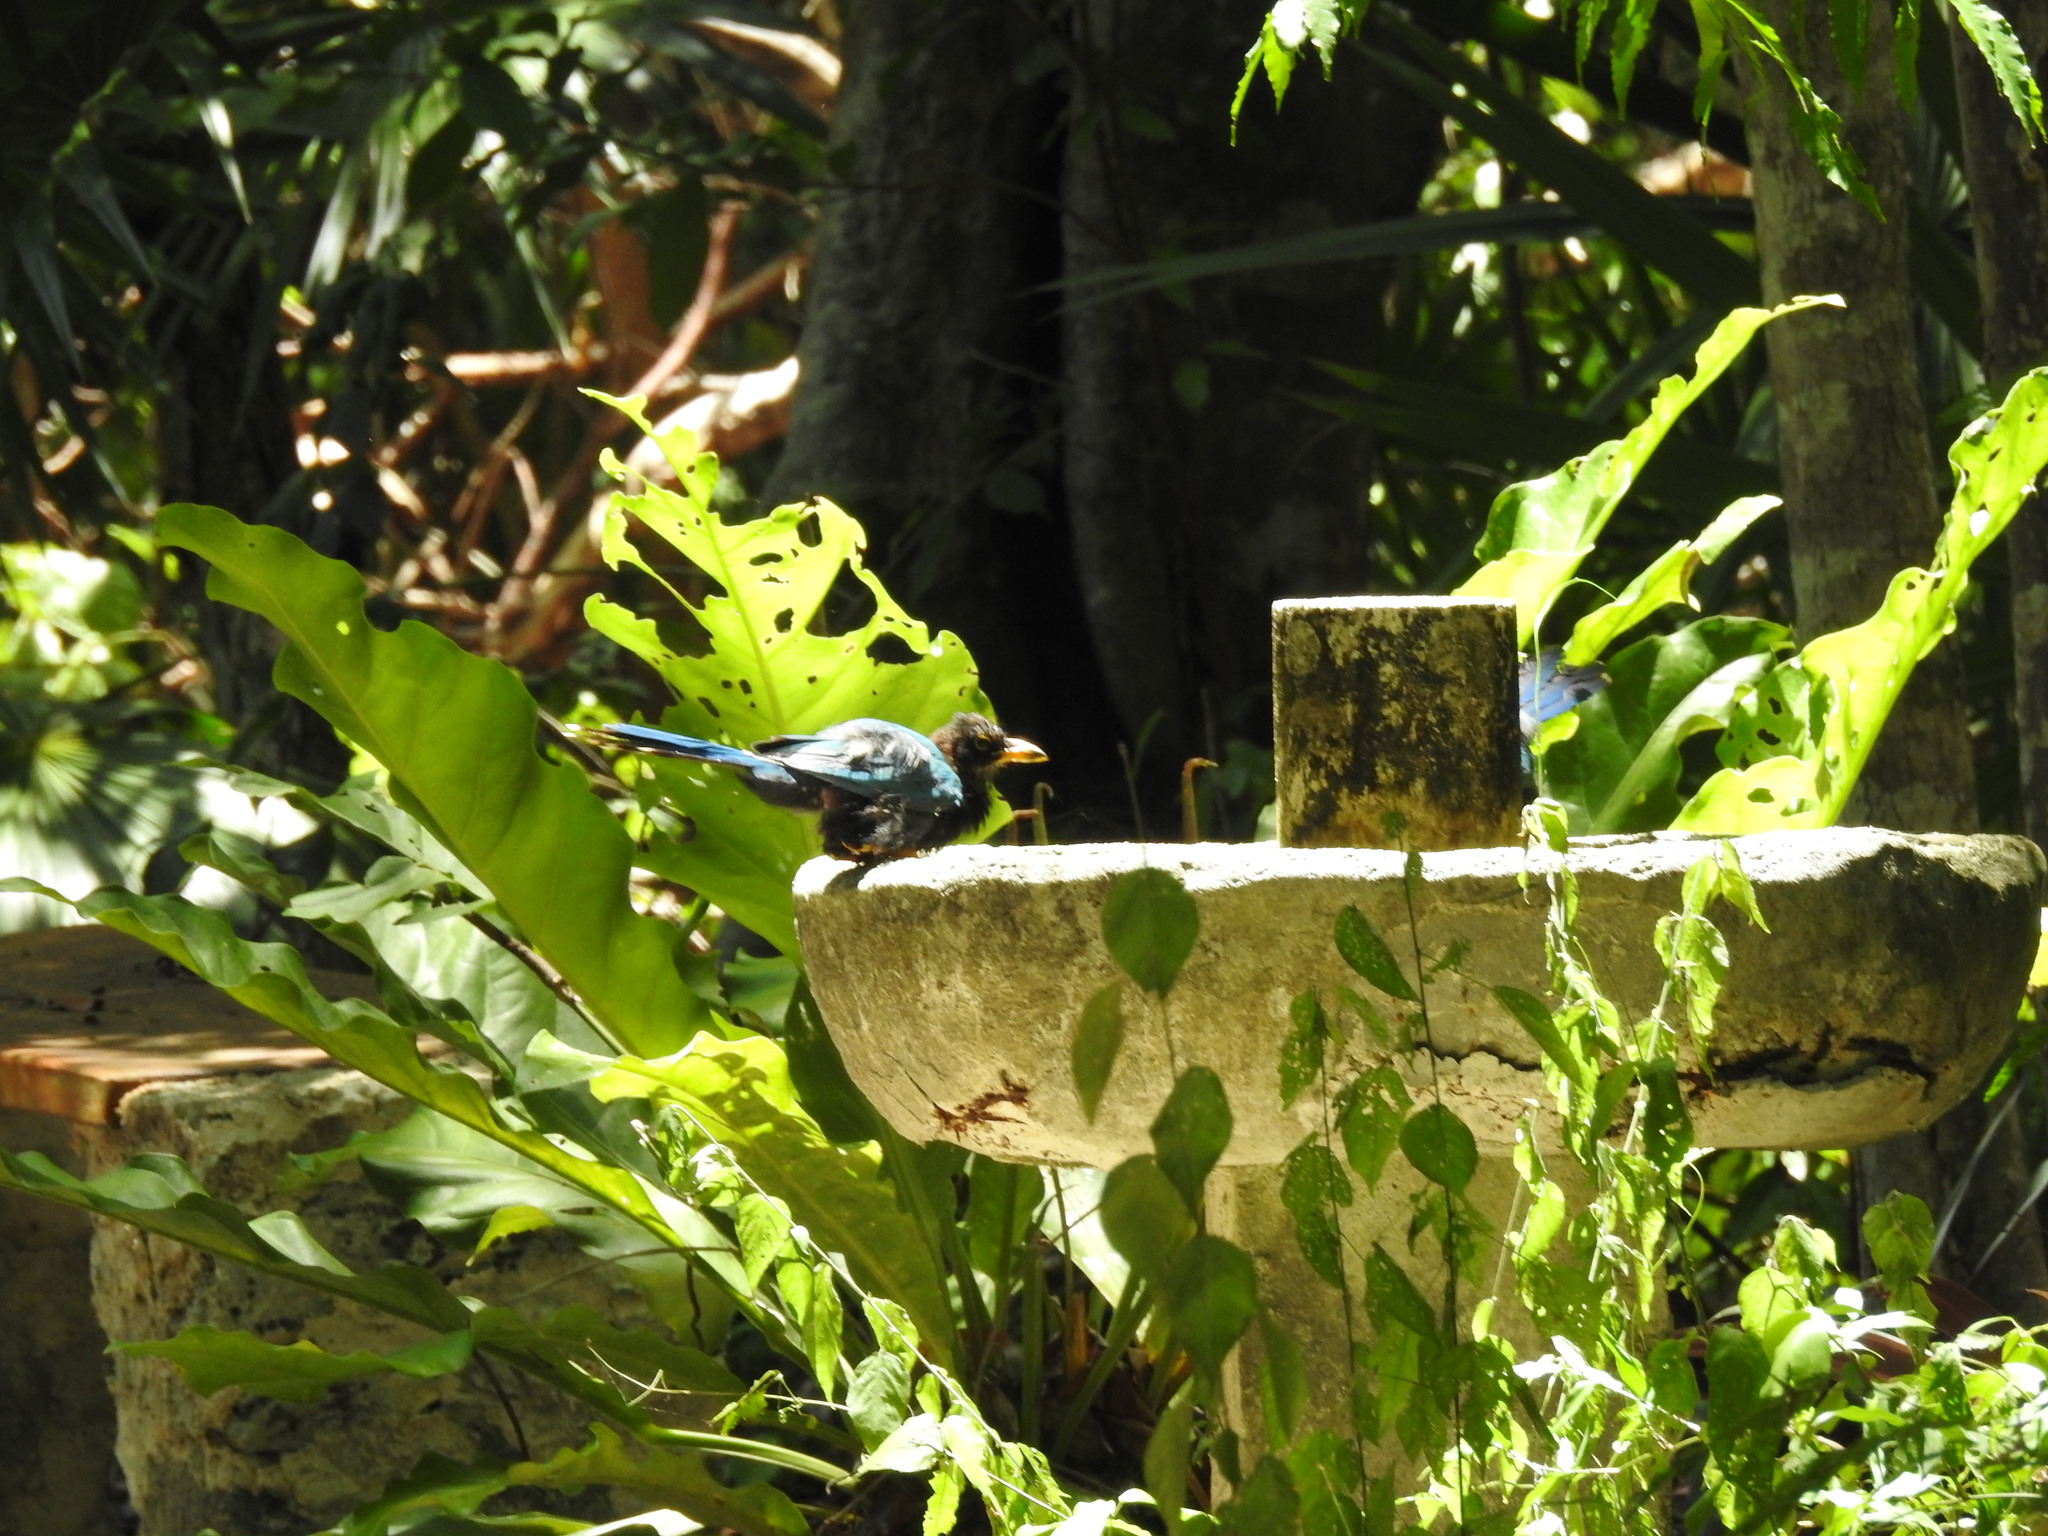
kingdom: Animalia
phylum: Chordata
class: Aves
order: Passeriformes
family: Corvidae
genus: Cyanocorax
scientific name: Cyanocorax yucatanicus
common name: Yucatan jay
